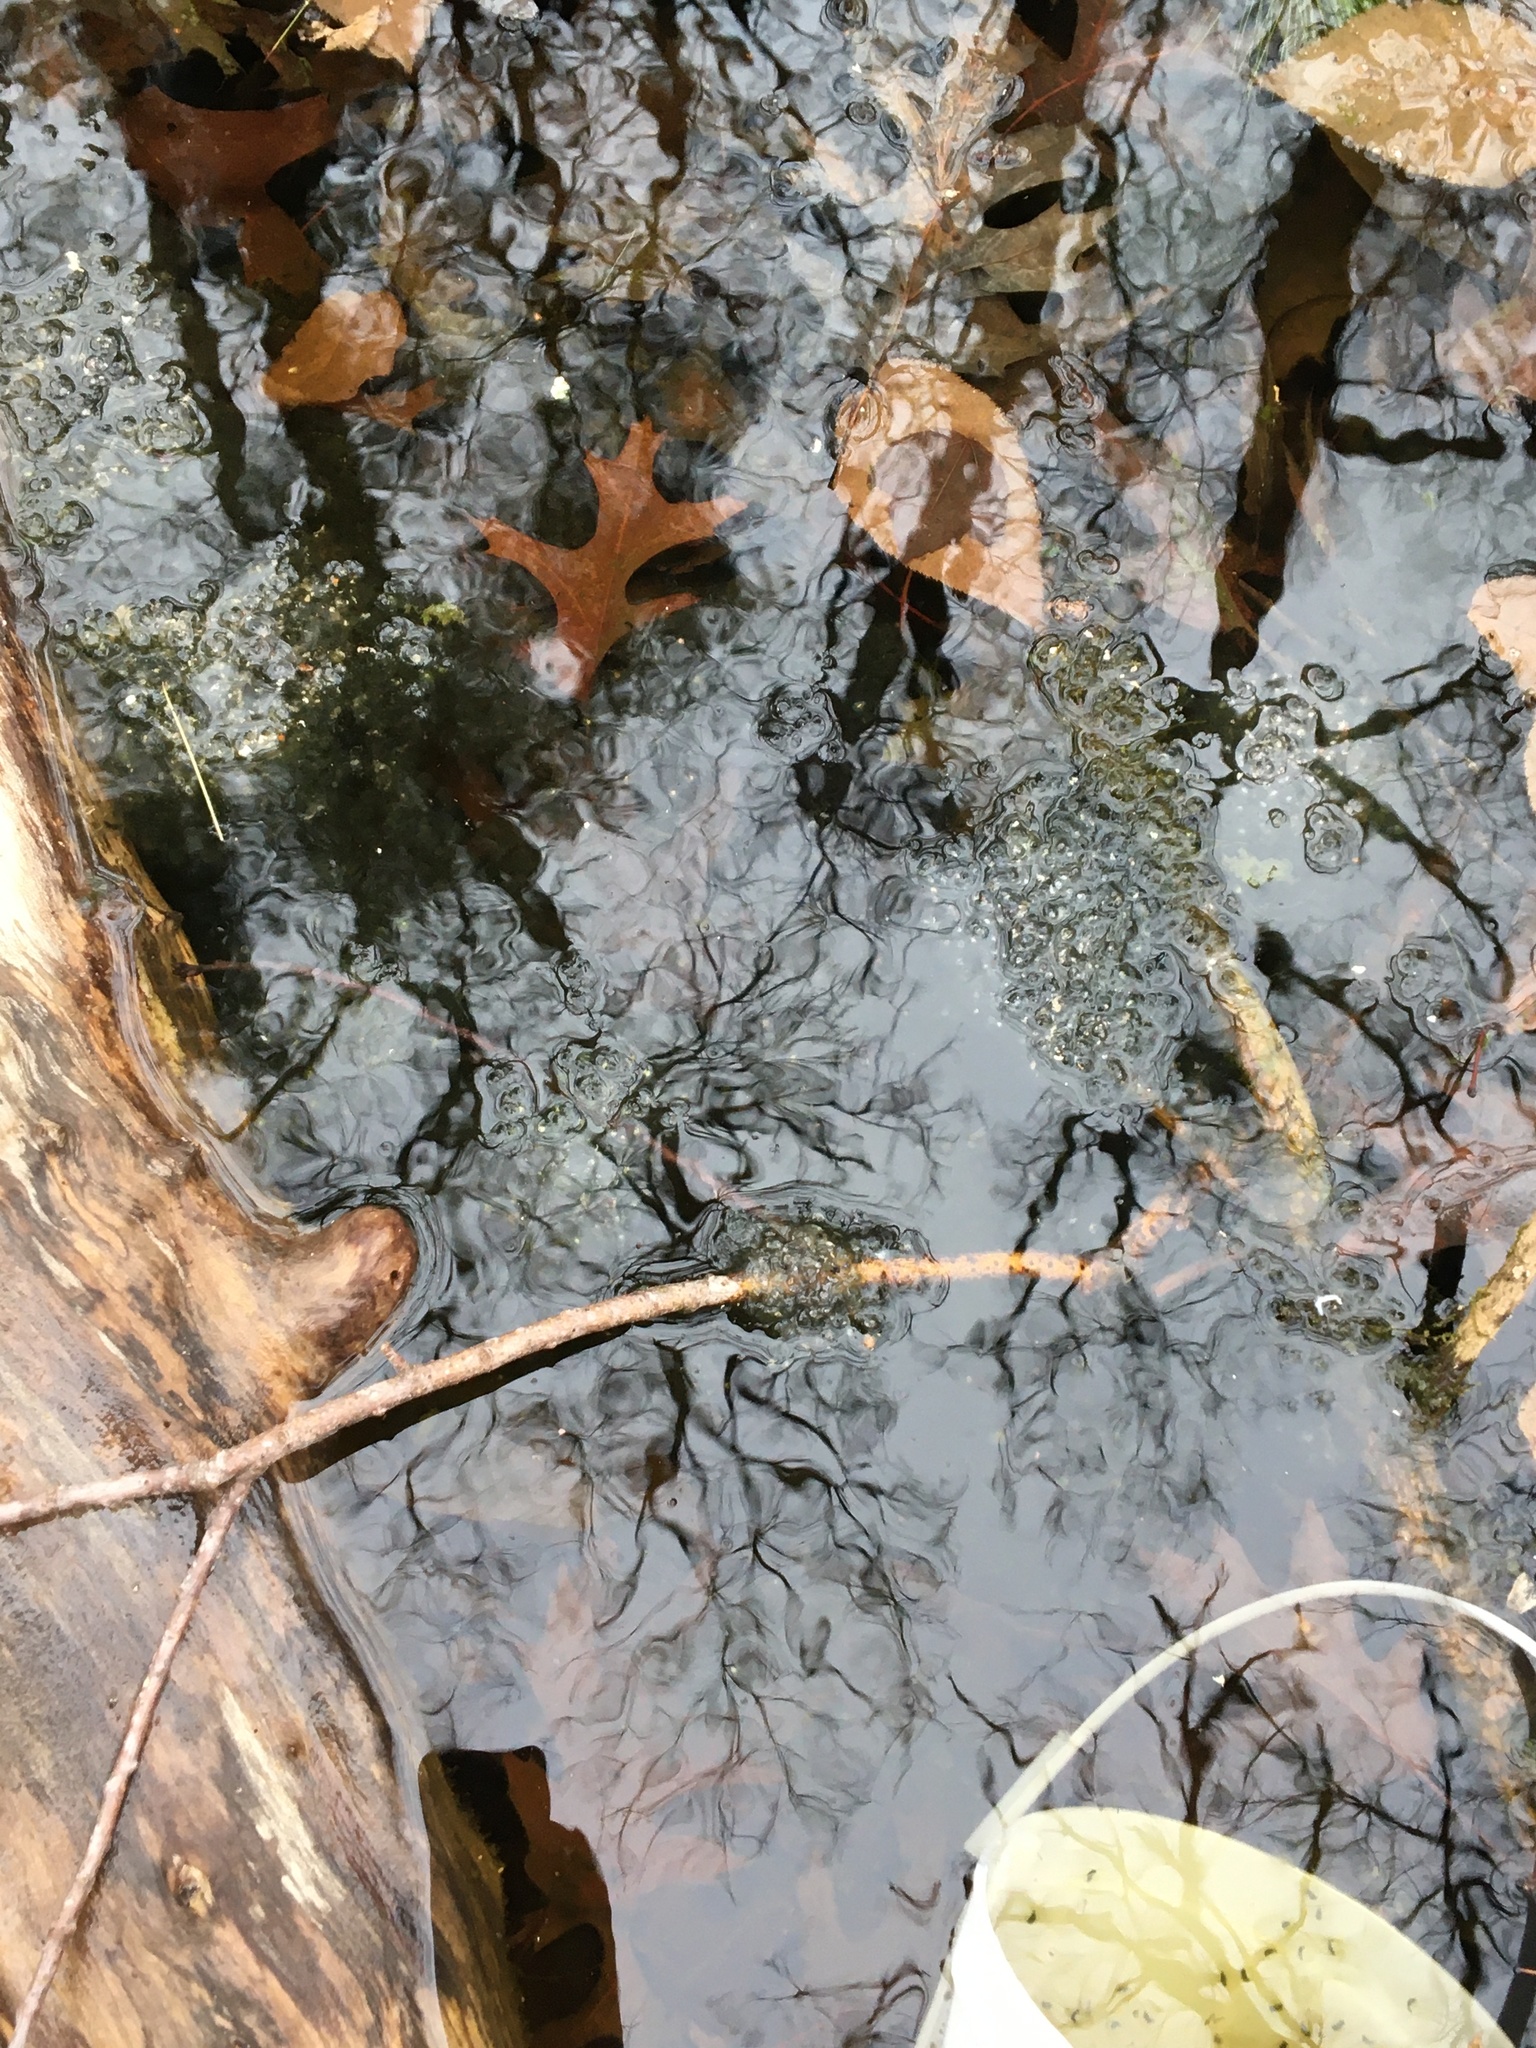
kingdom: Animalia
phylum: Chordata
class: Amphibia
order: Anura
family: Ranidae
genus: Lithobates
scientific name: Lithobates sylvaticus
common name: Wood frog
